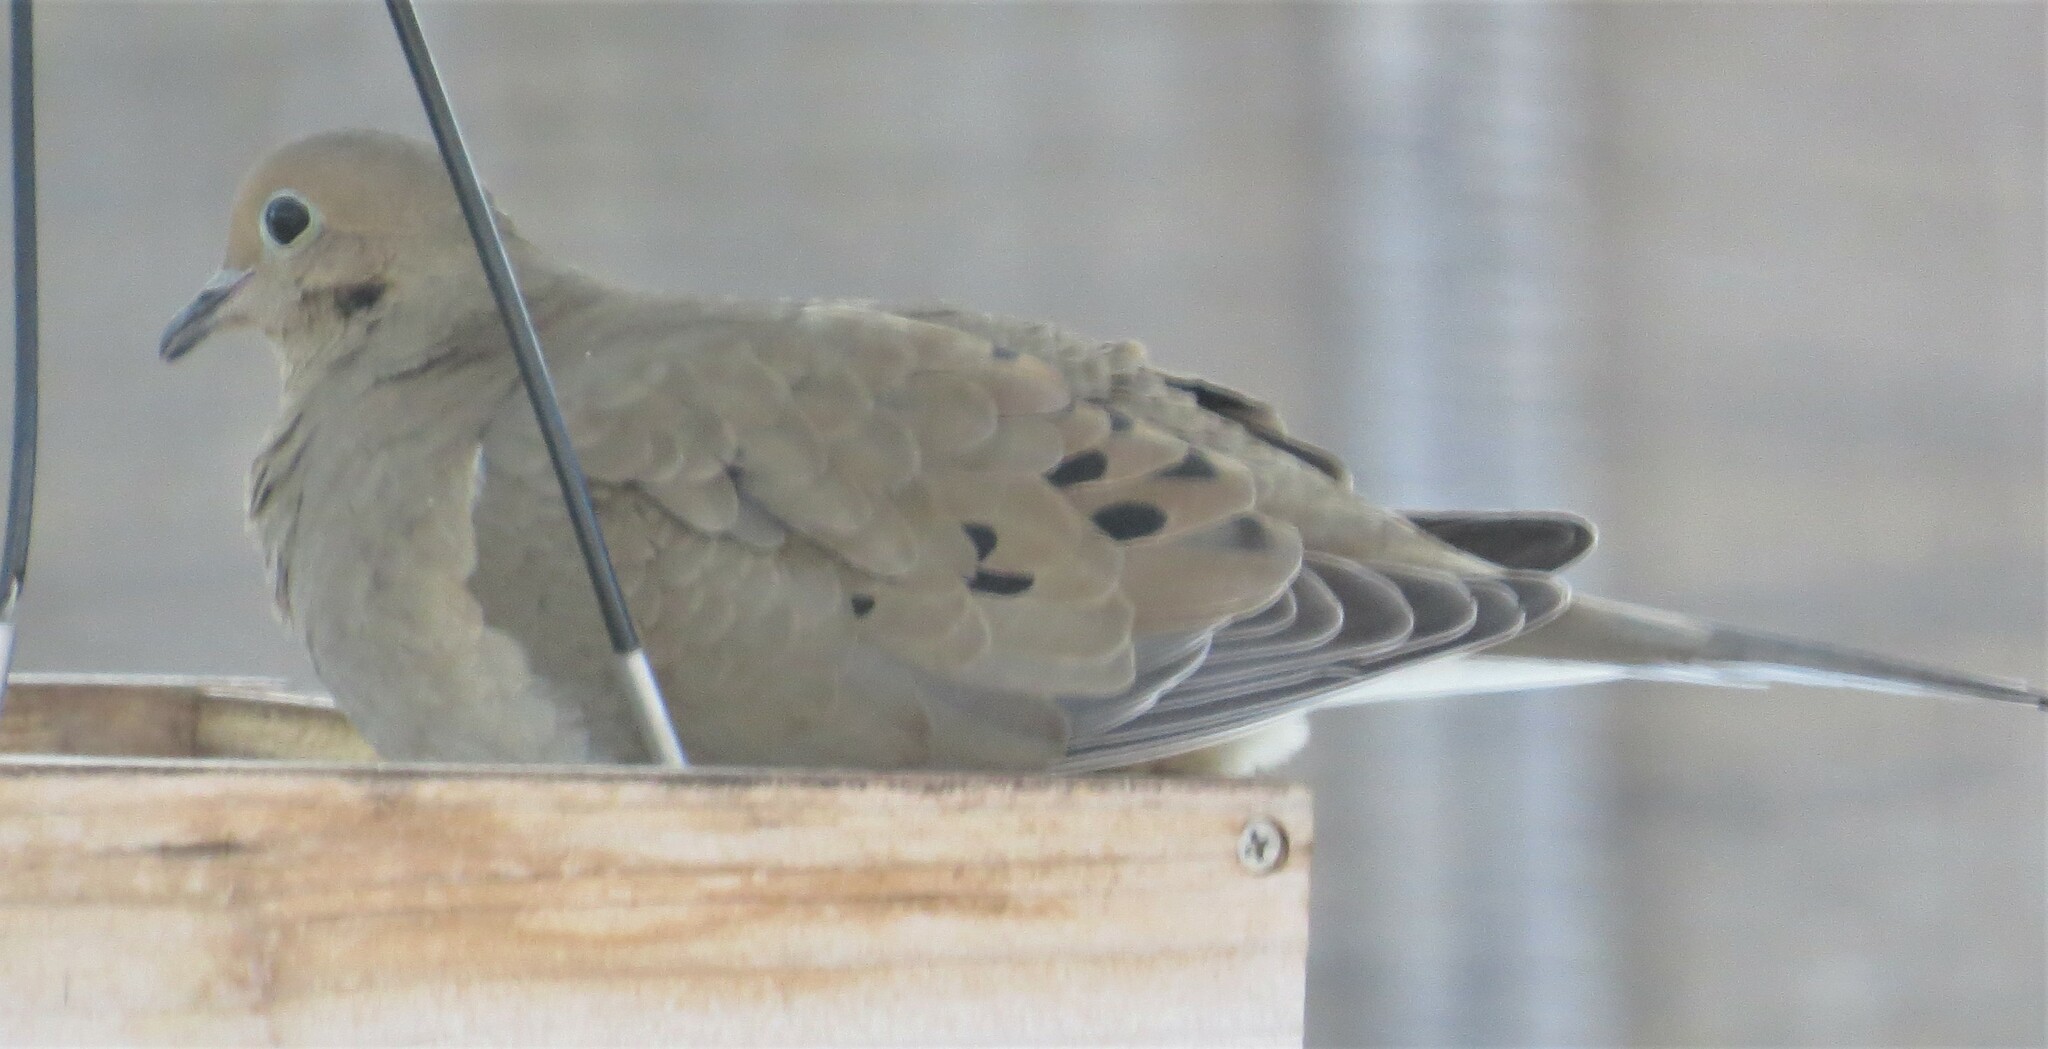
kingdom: Animalia
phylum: Chordata
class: Aves
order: Columbiformes
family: Columbidae
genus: Zenaida
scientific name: Zenaida macroura
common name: Mourning dove
